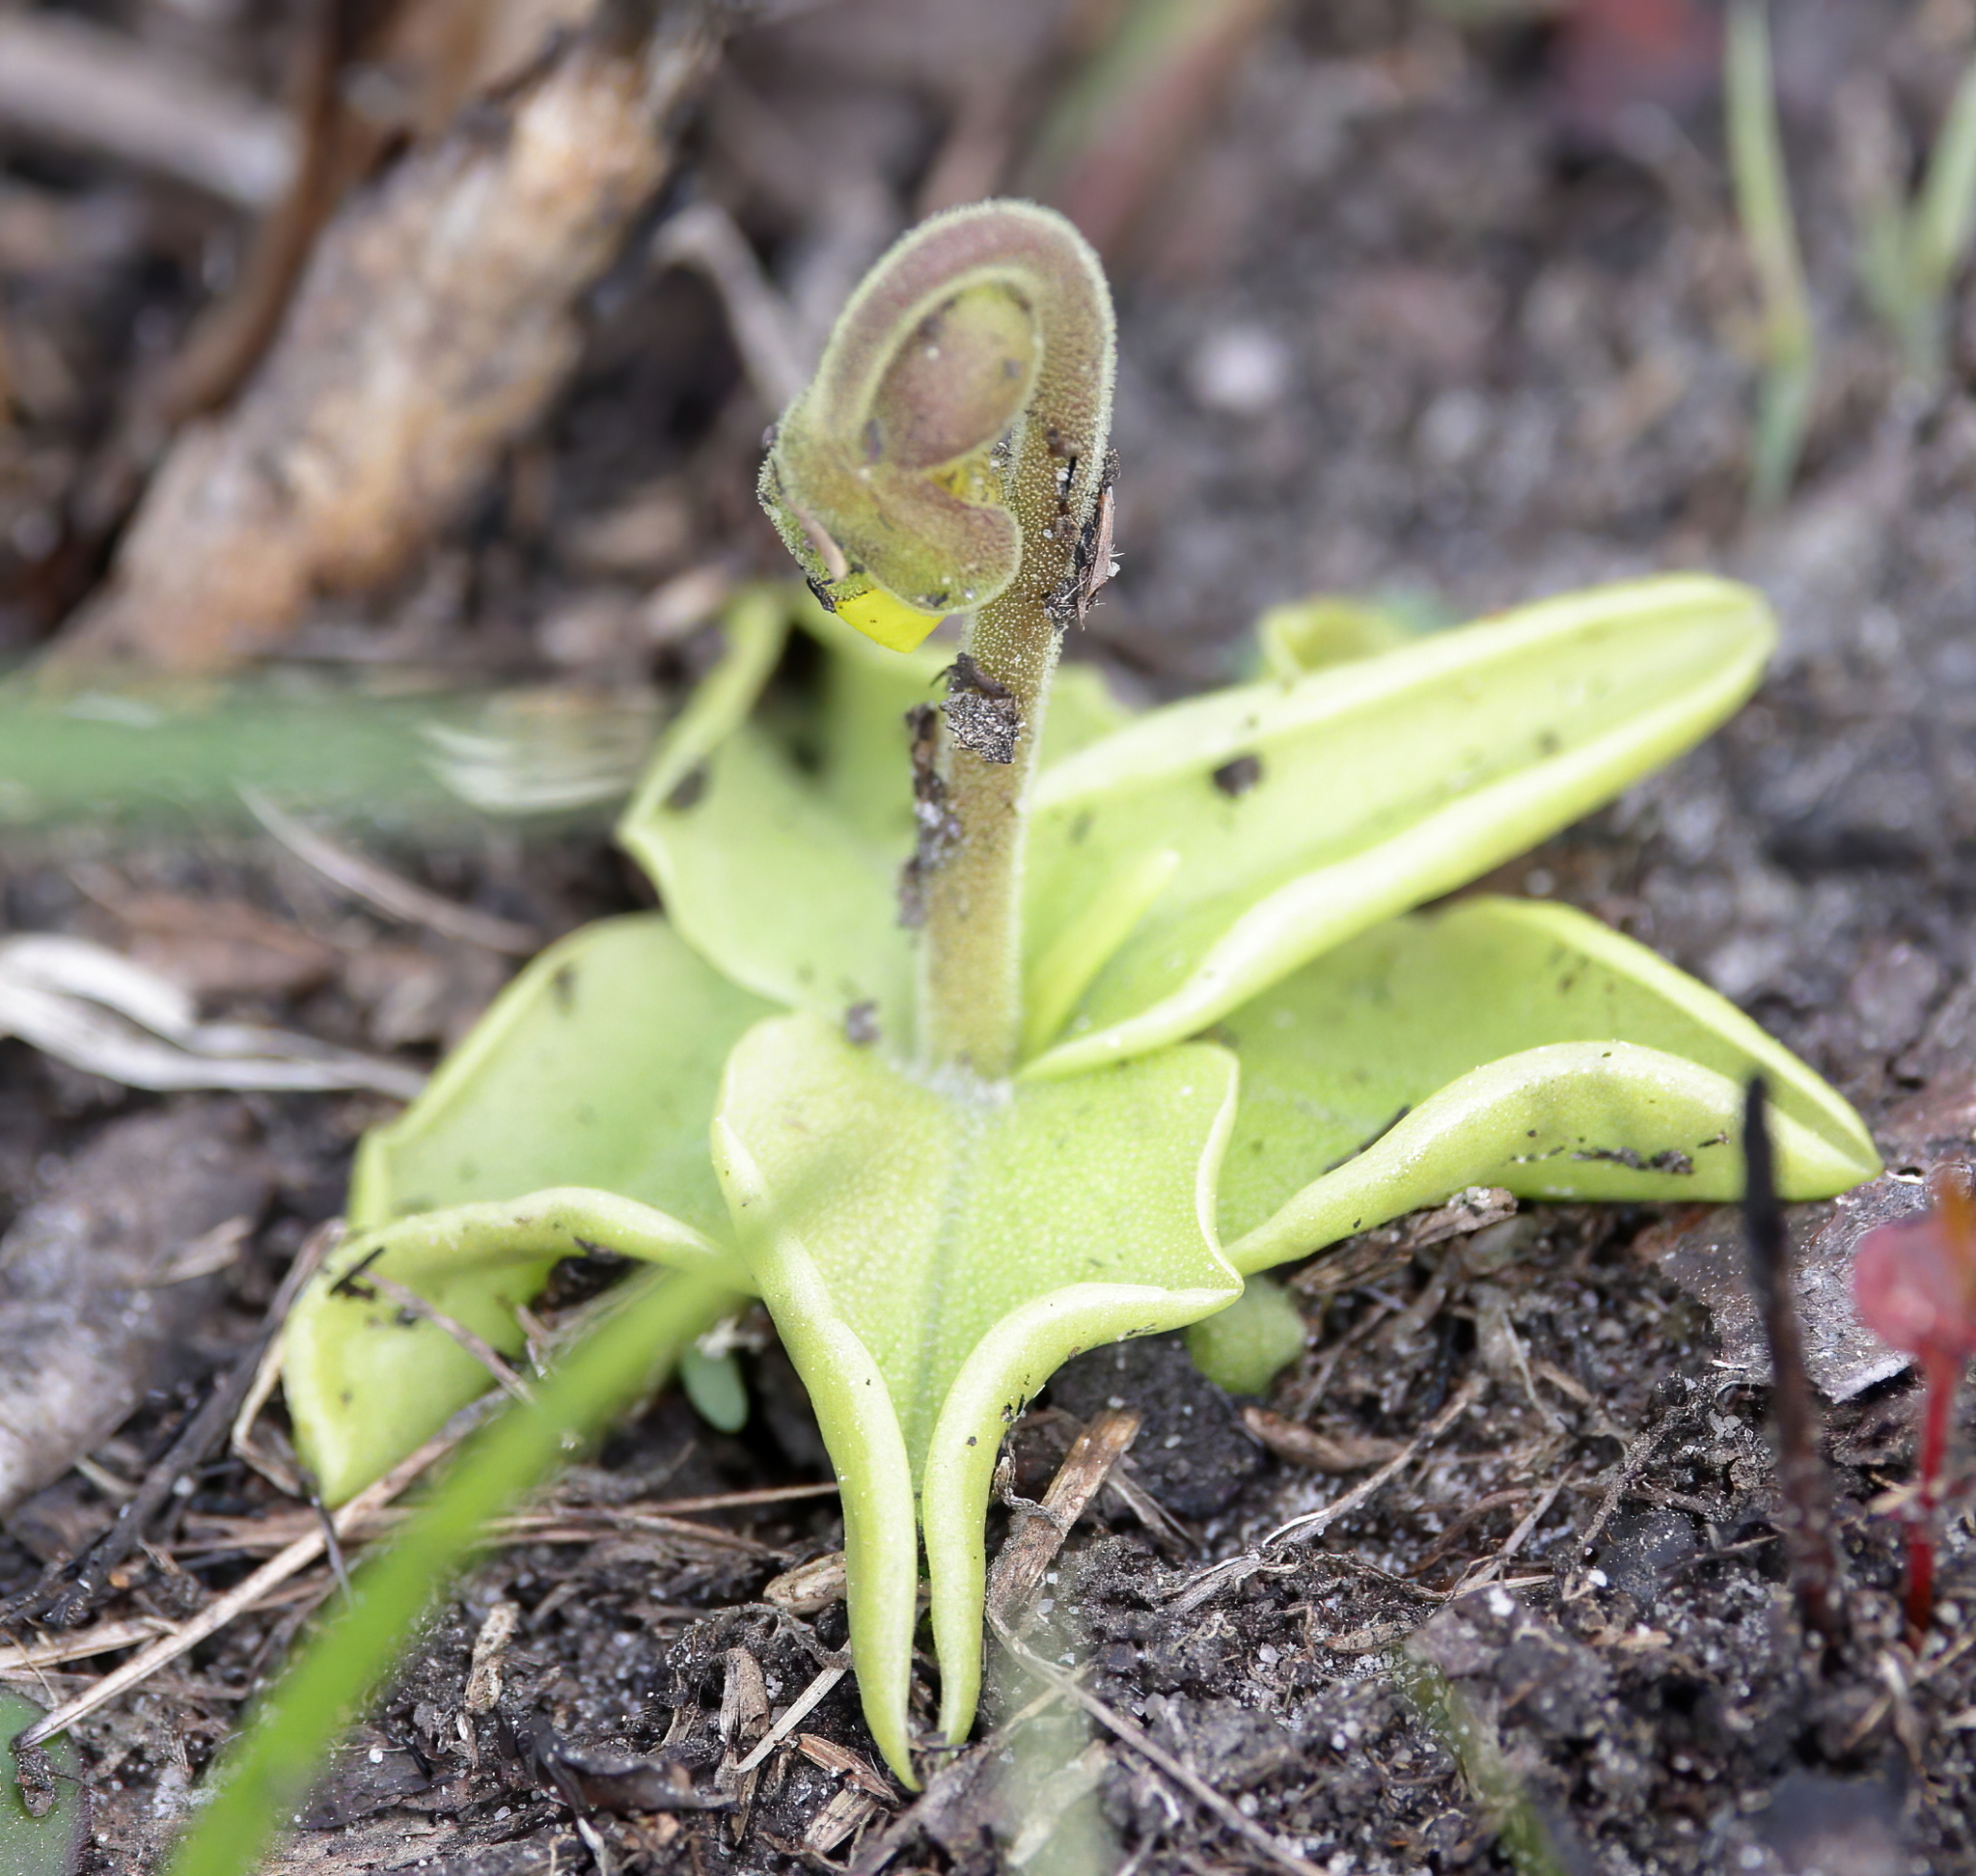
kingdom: Plantae
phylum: Tracheophyta
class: Magnoliopsida
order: Lamiales
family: Lentibulariaceae
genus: Pinguicula
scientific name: Pinguicula lutea
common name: Yellow butterwort
